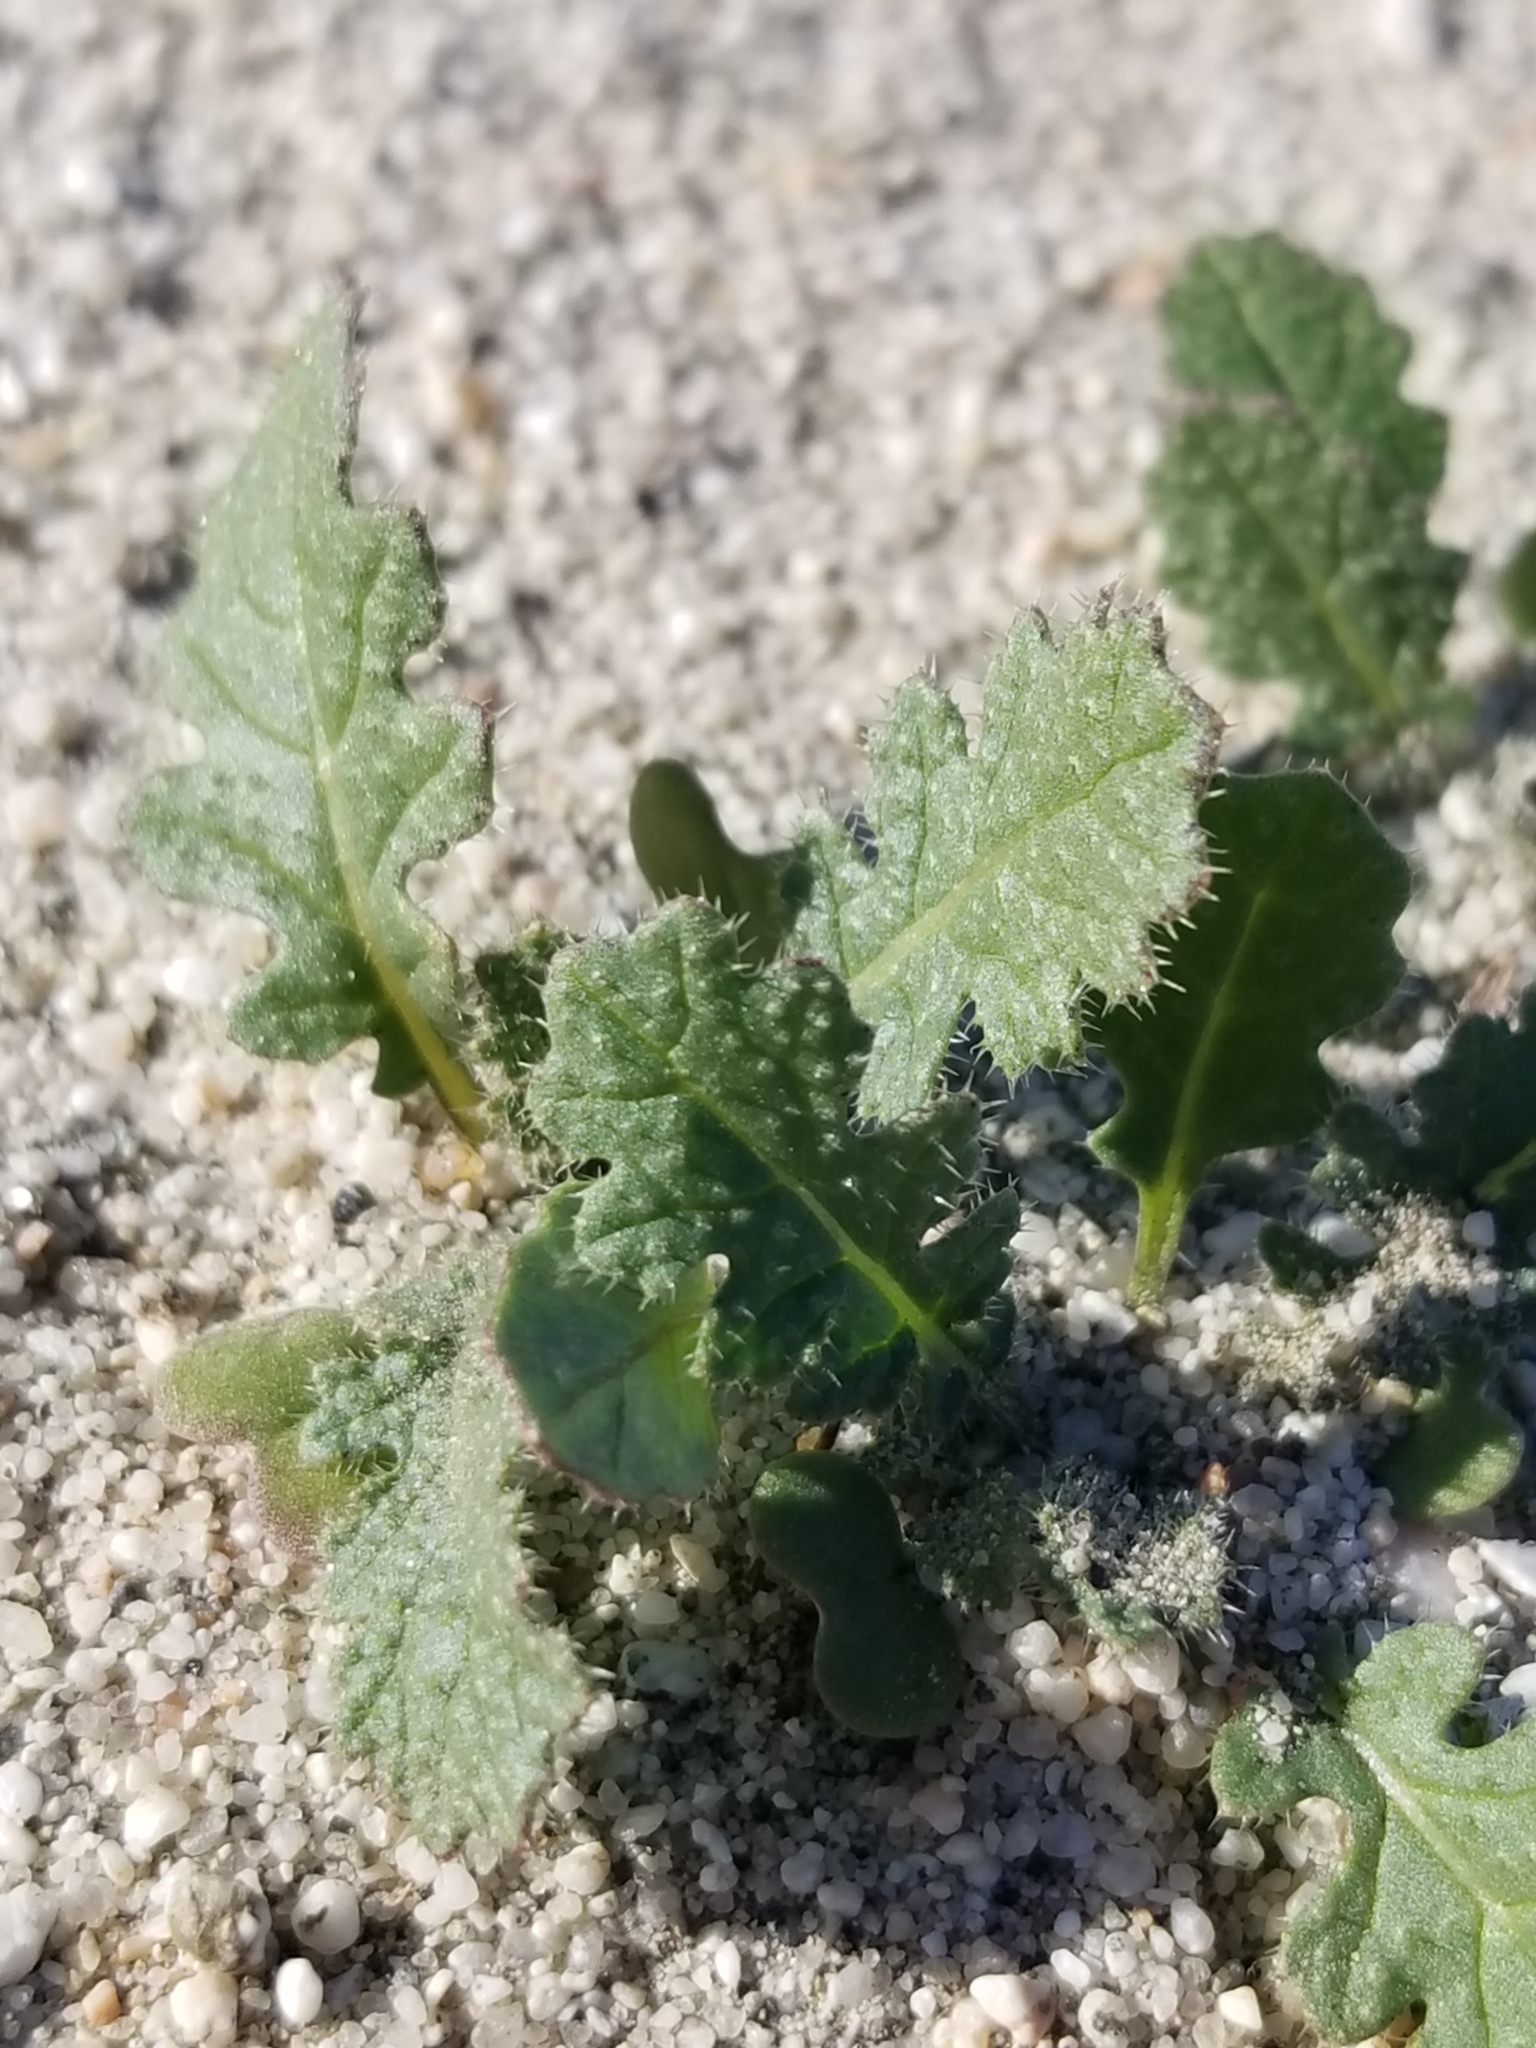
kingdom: Plantae
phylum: Tracheophyta
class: Magnoliopsida
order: Brassicales
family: Brassicaceae
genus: Brassica
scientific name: Brassica tournefortii
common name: Pale cabbage
